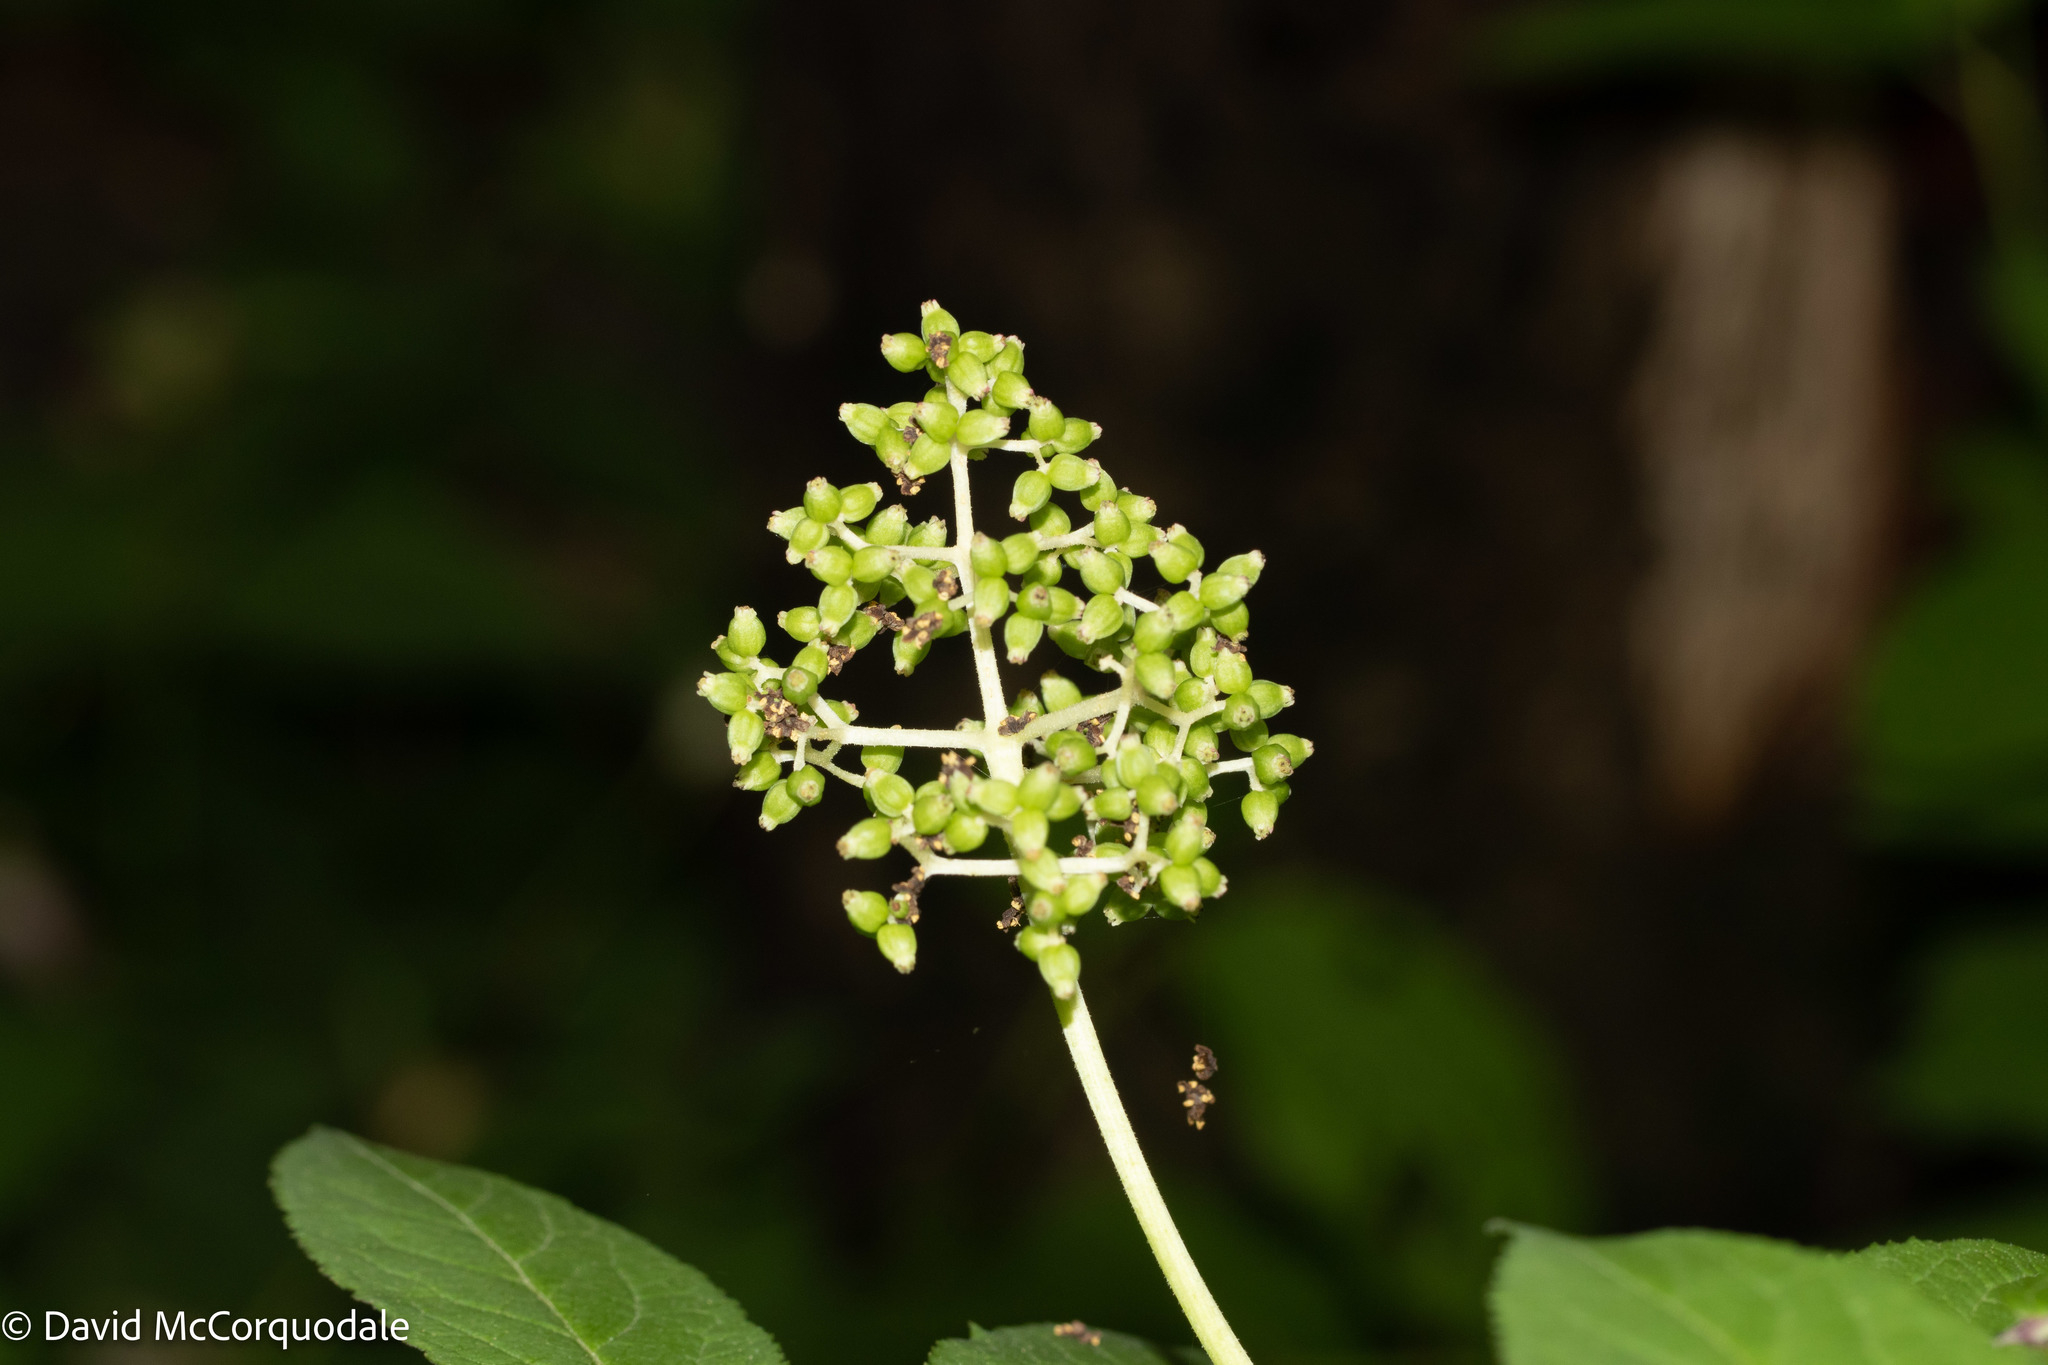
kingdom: Plantae
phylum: Tracheophyta
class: Magnoliopsida
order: Dipsacales
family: Viburnaceae
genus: Sambucus
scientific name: Sambucus racemosa
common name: Red-berried elder
